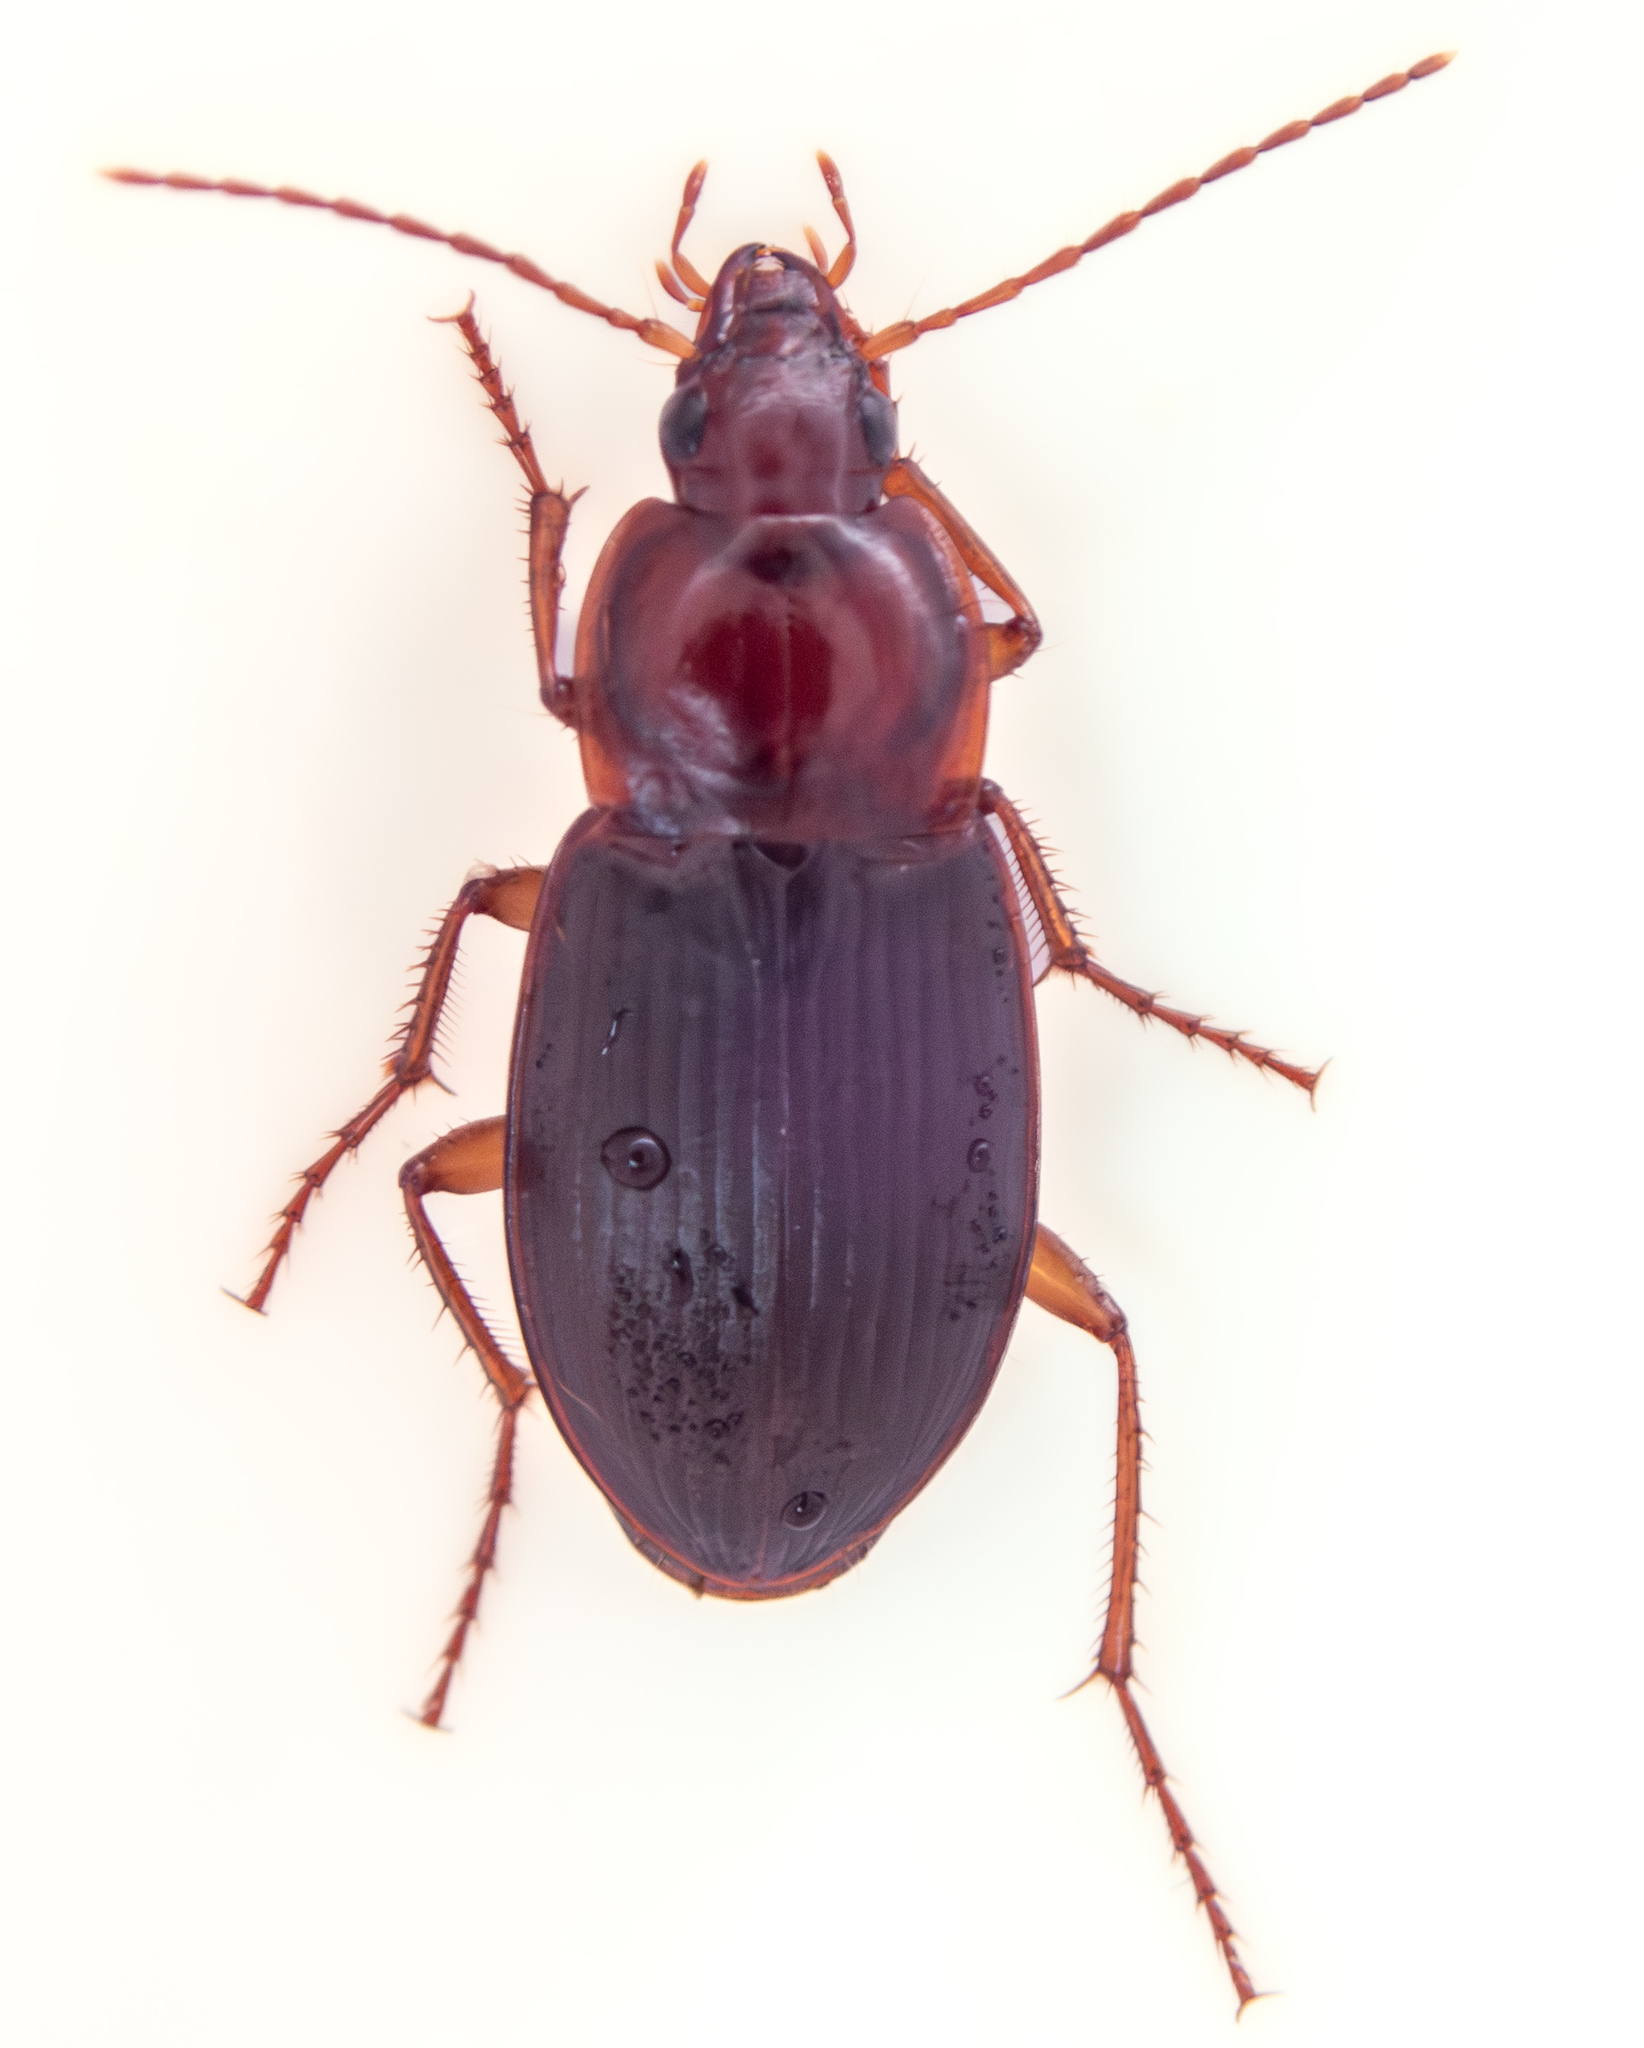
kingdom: Animalia
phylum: Arthropoda
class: Insecta
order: Coleoptera
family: Carabidae
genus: Calathus
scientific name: Calathus ruficollis
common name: Red-collared harp ground beetle
